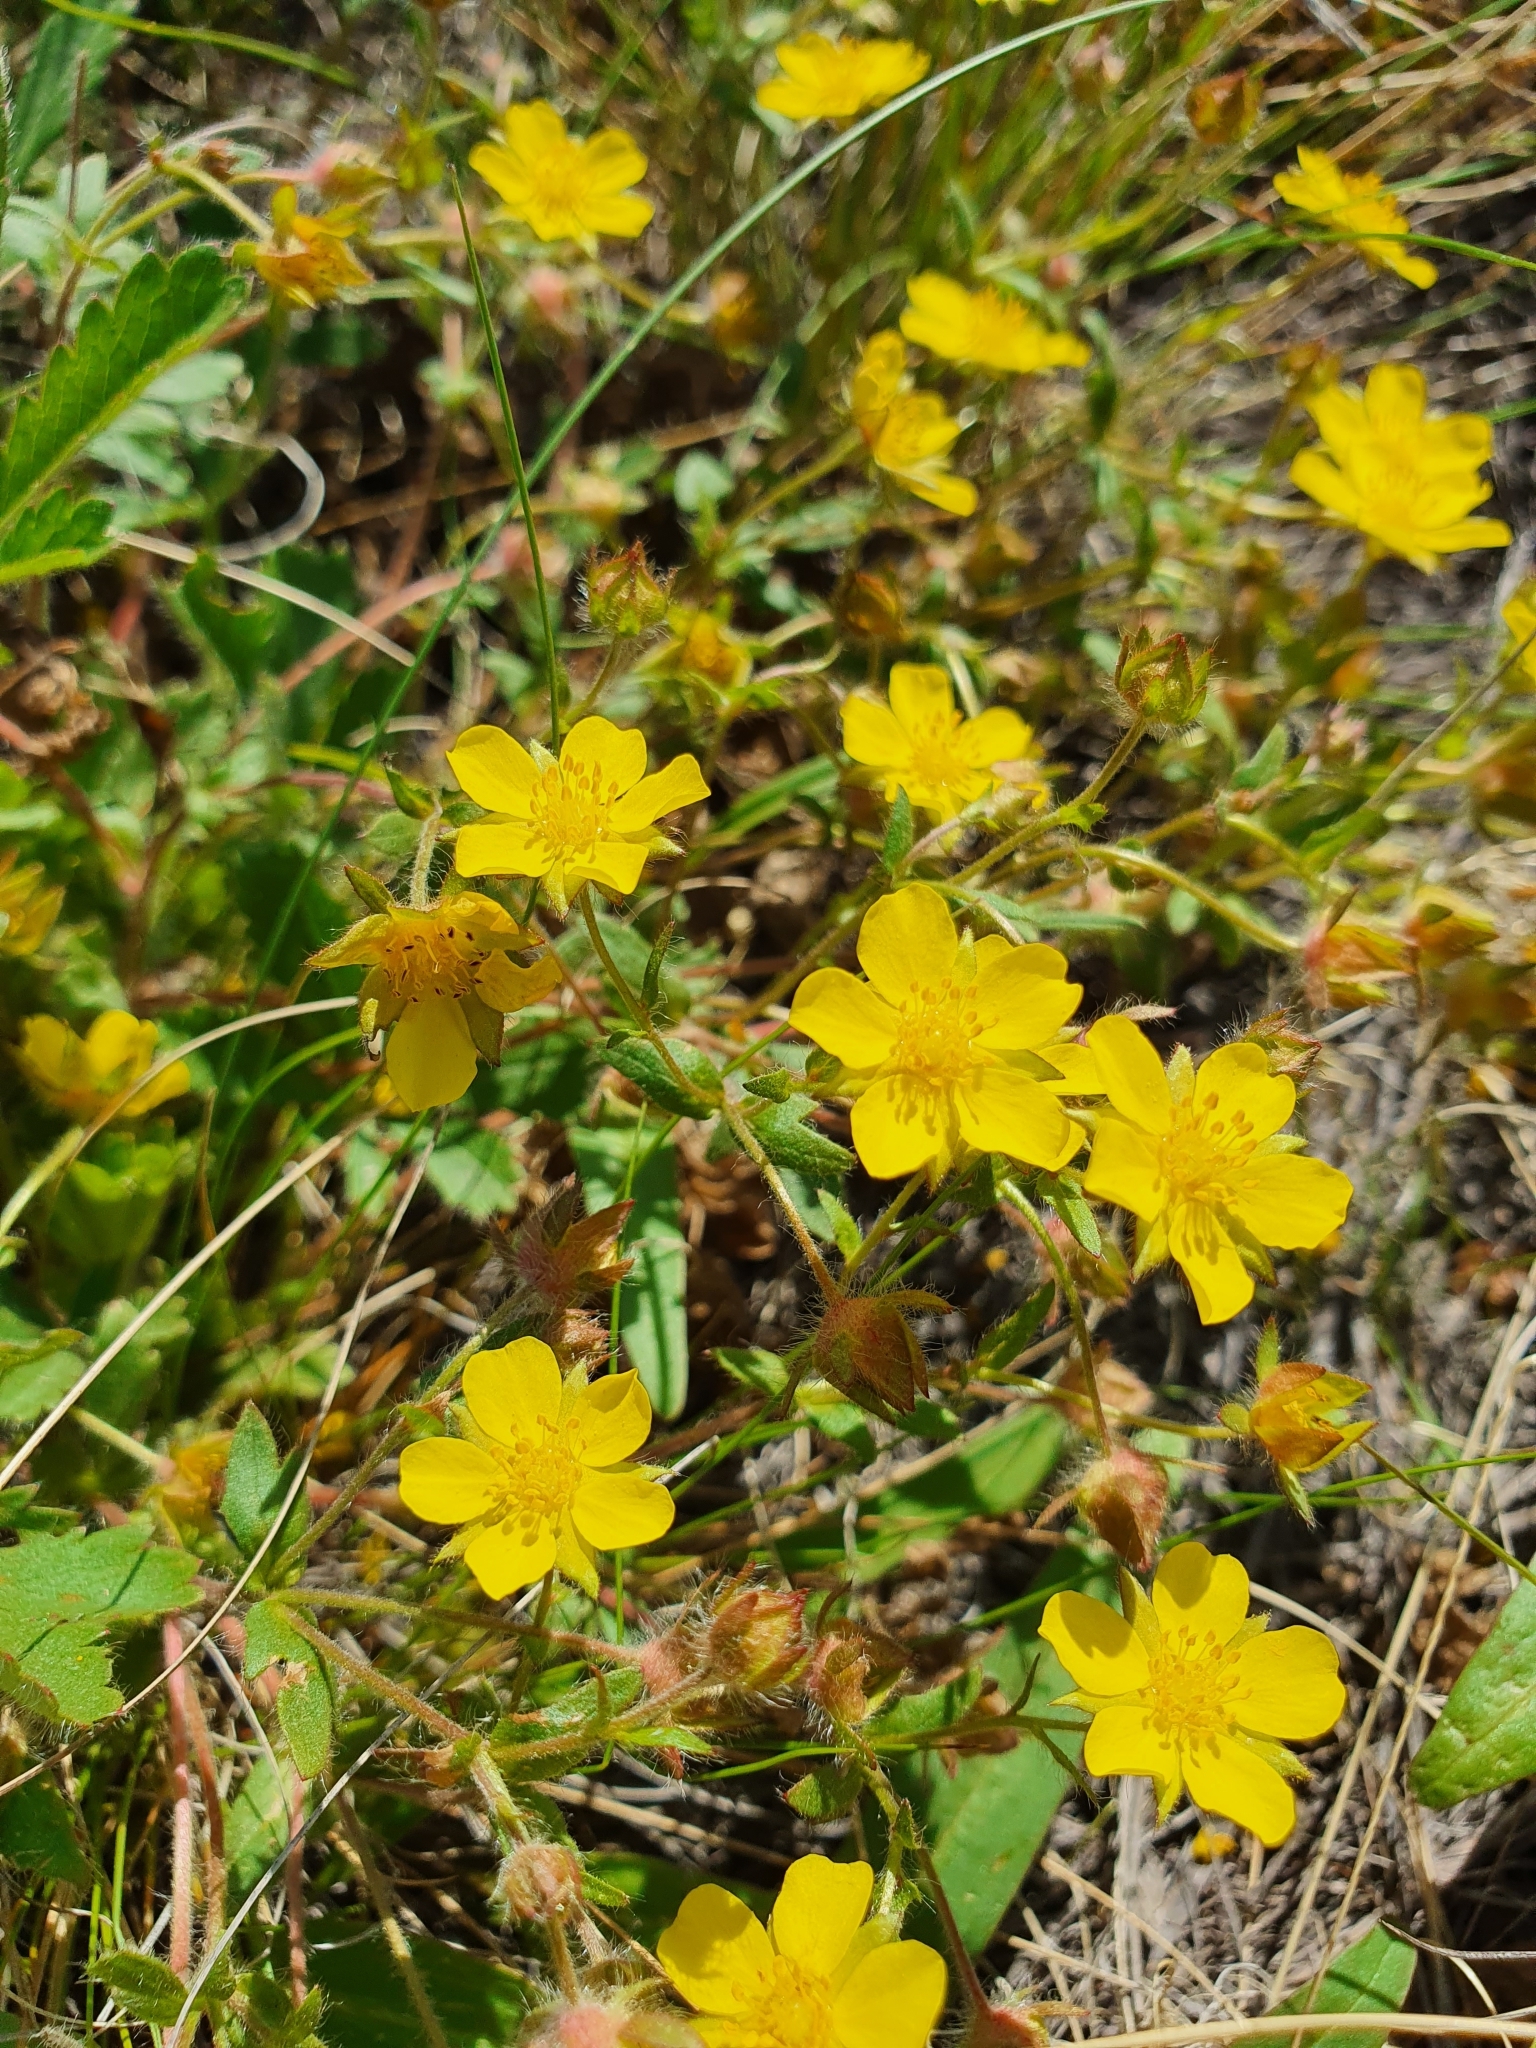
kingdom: Plantae
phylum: Tracheophyta
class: Magnoliopsida
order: Rosales
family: Rosaceae
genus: Potentilla
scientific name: Potentilla humifusa
